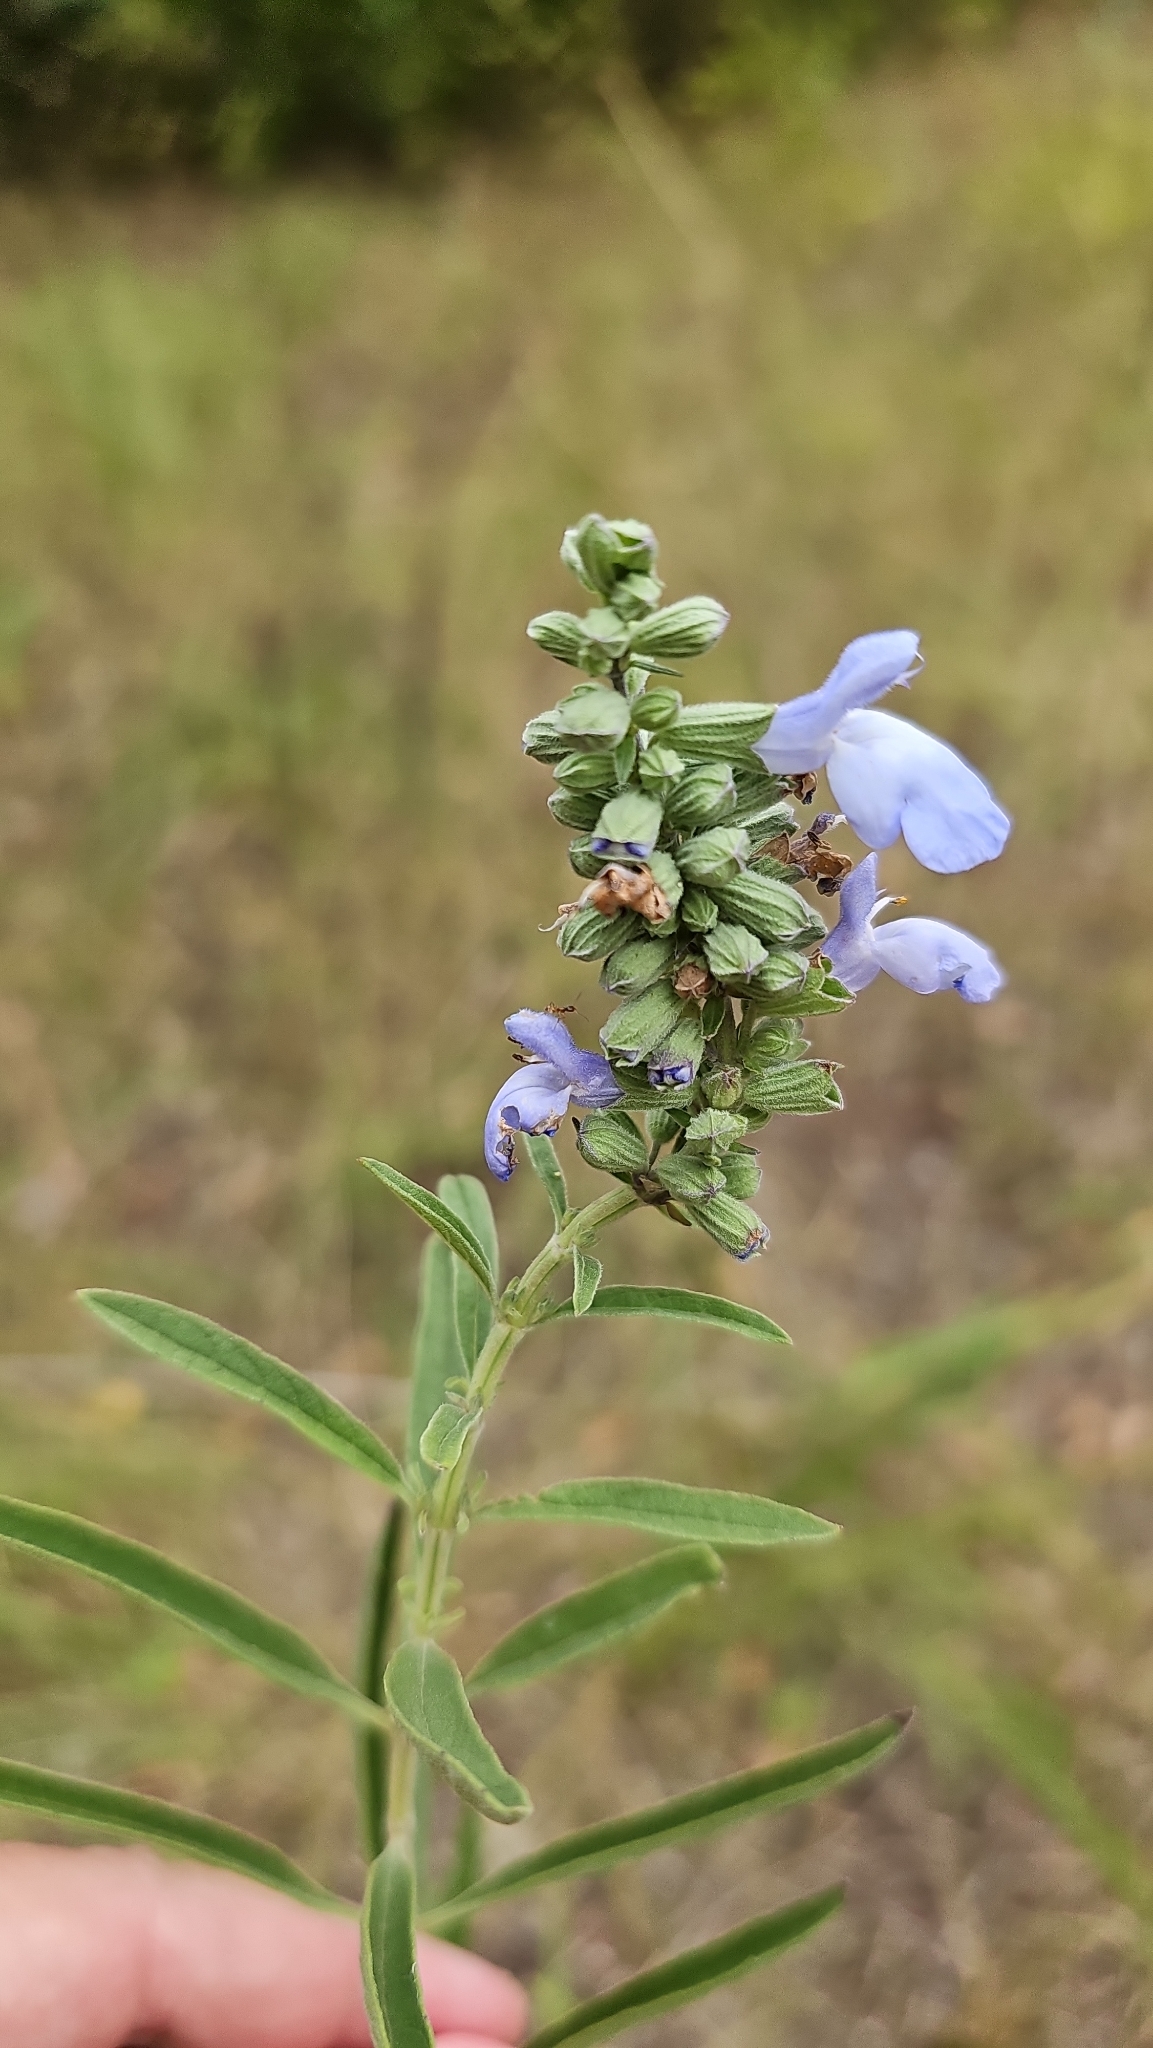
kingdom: Plantae
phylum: Tracheophyta
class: Magnoliopsida
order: Lamiales
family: Lamiaceae
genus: Salvia
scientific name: Salvia azurea
